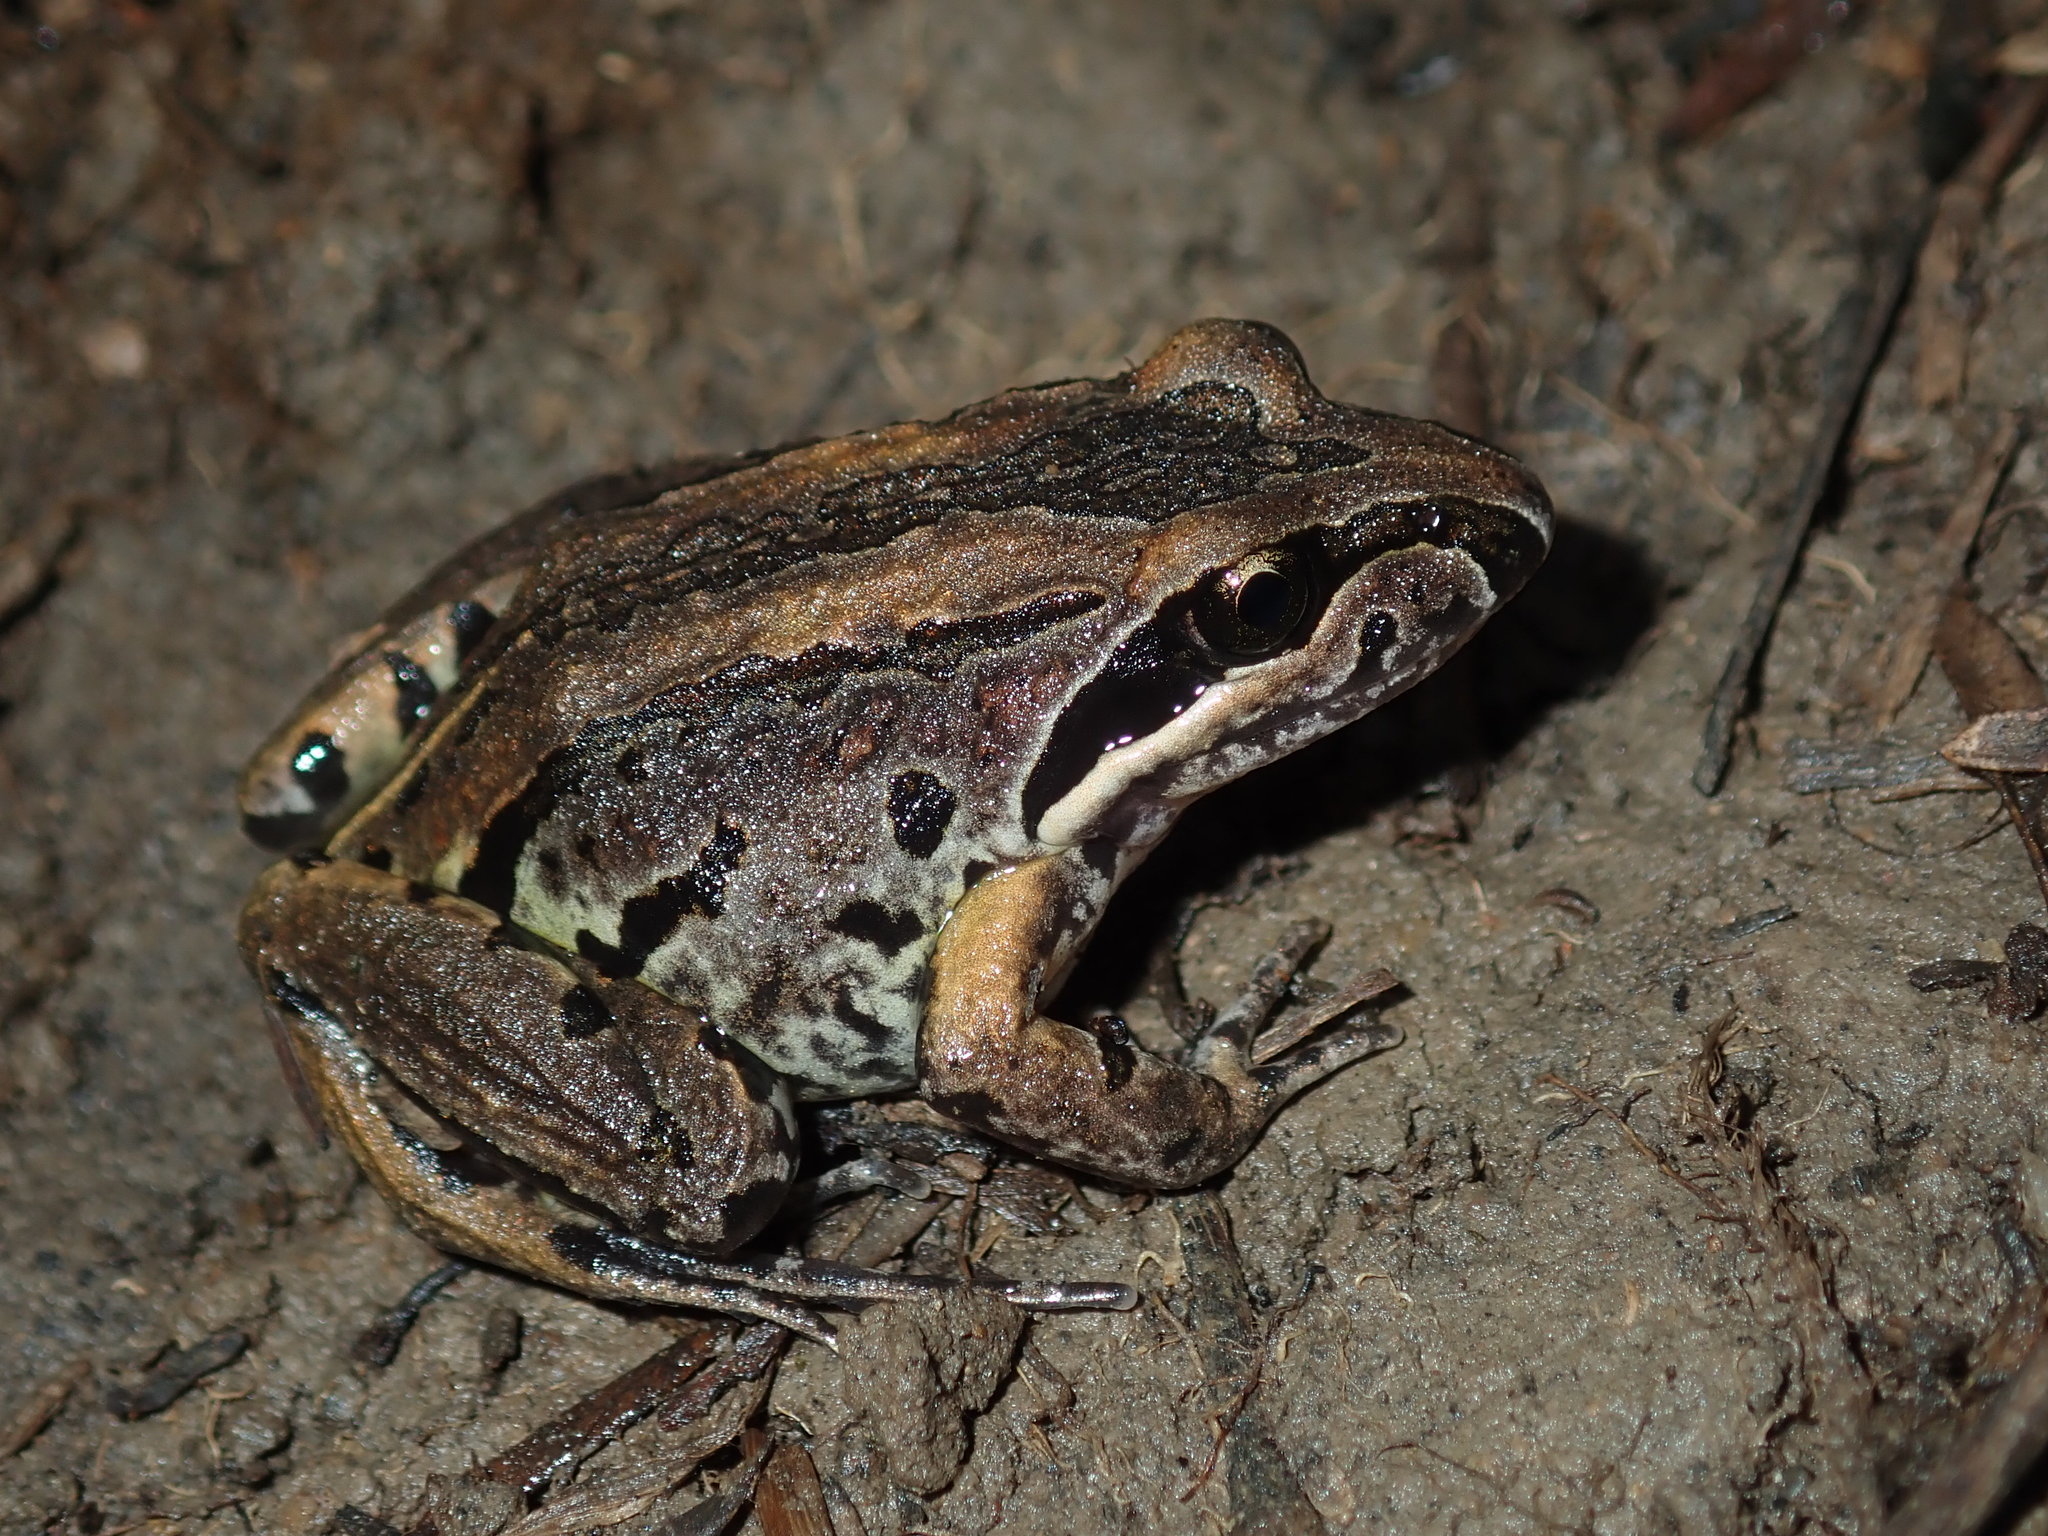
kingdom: Animalia
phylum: Chordata
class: Amphibia
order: Anura
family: Limnodynastidae
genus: Limnodynastes
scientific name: Limnodynastes peronii
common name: Brown frog
